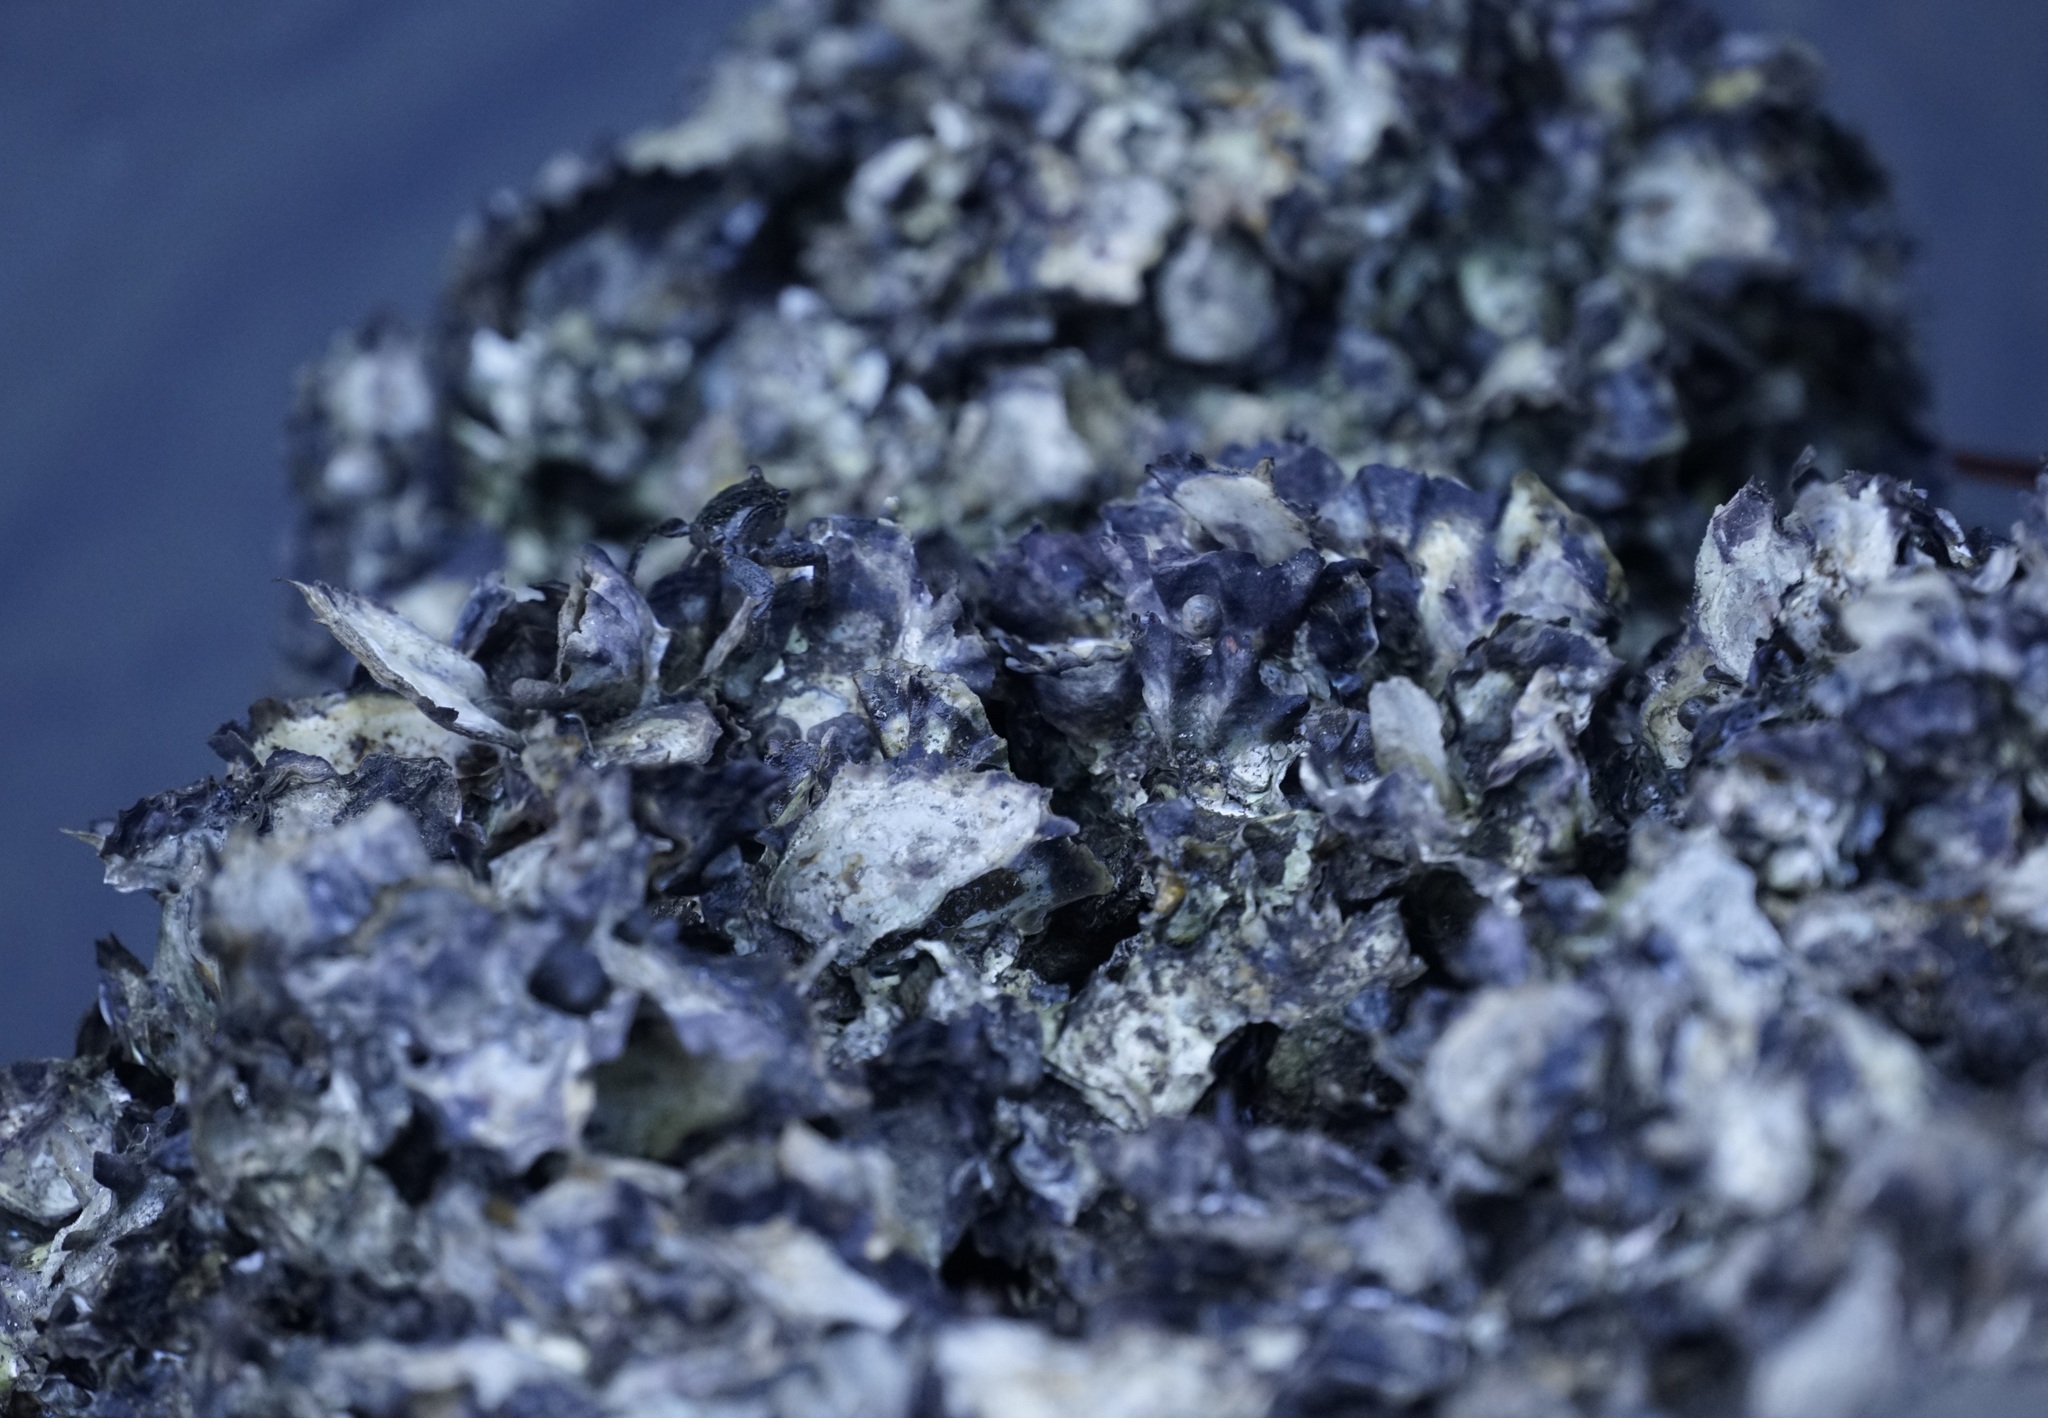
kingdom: Animalia
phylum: Mollusca
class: Bivalvia
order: Ostreida
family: Ostreidae
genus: Saccostrea
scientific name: Saccostrea glomerata
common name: Sydney cupped oyster
